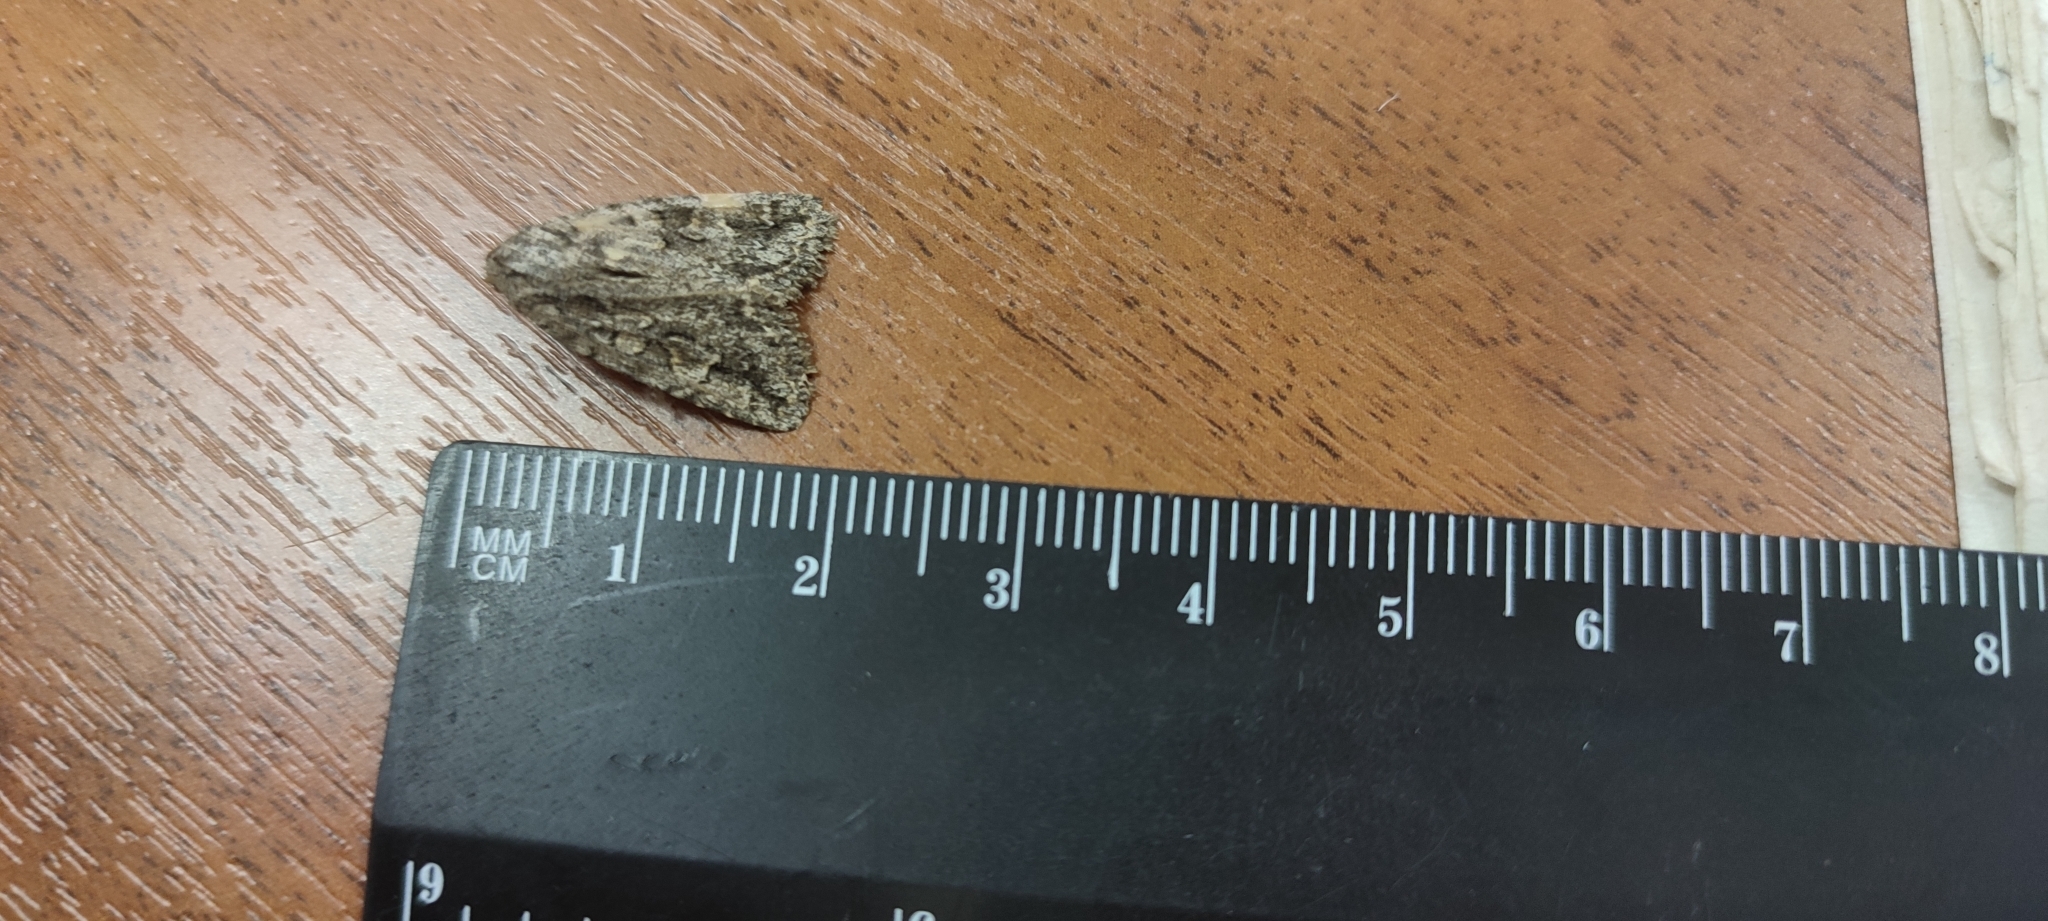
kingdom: Animalia
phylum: Arthropoda
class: Insecta
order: Lepidoptera
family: Noctuidae
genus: Phidrimana
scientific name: Phidrimana amurensis
